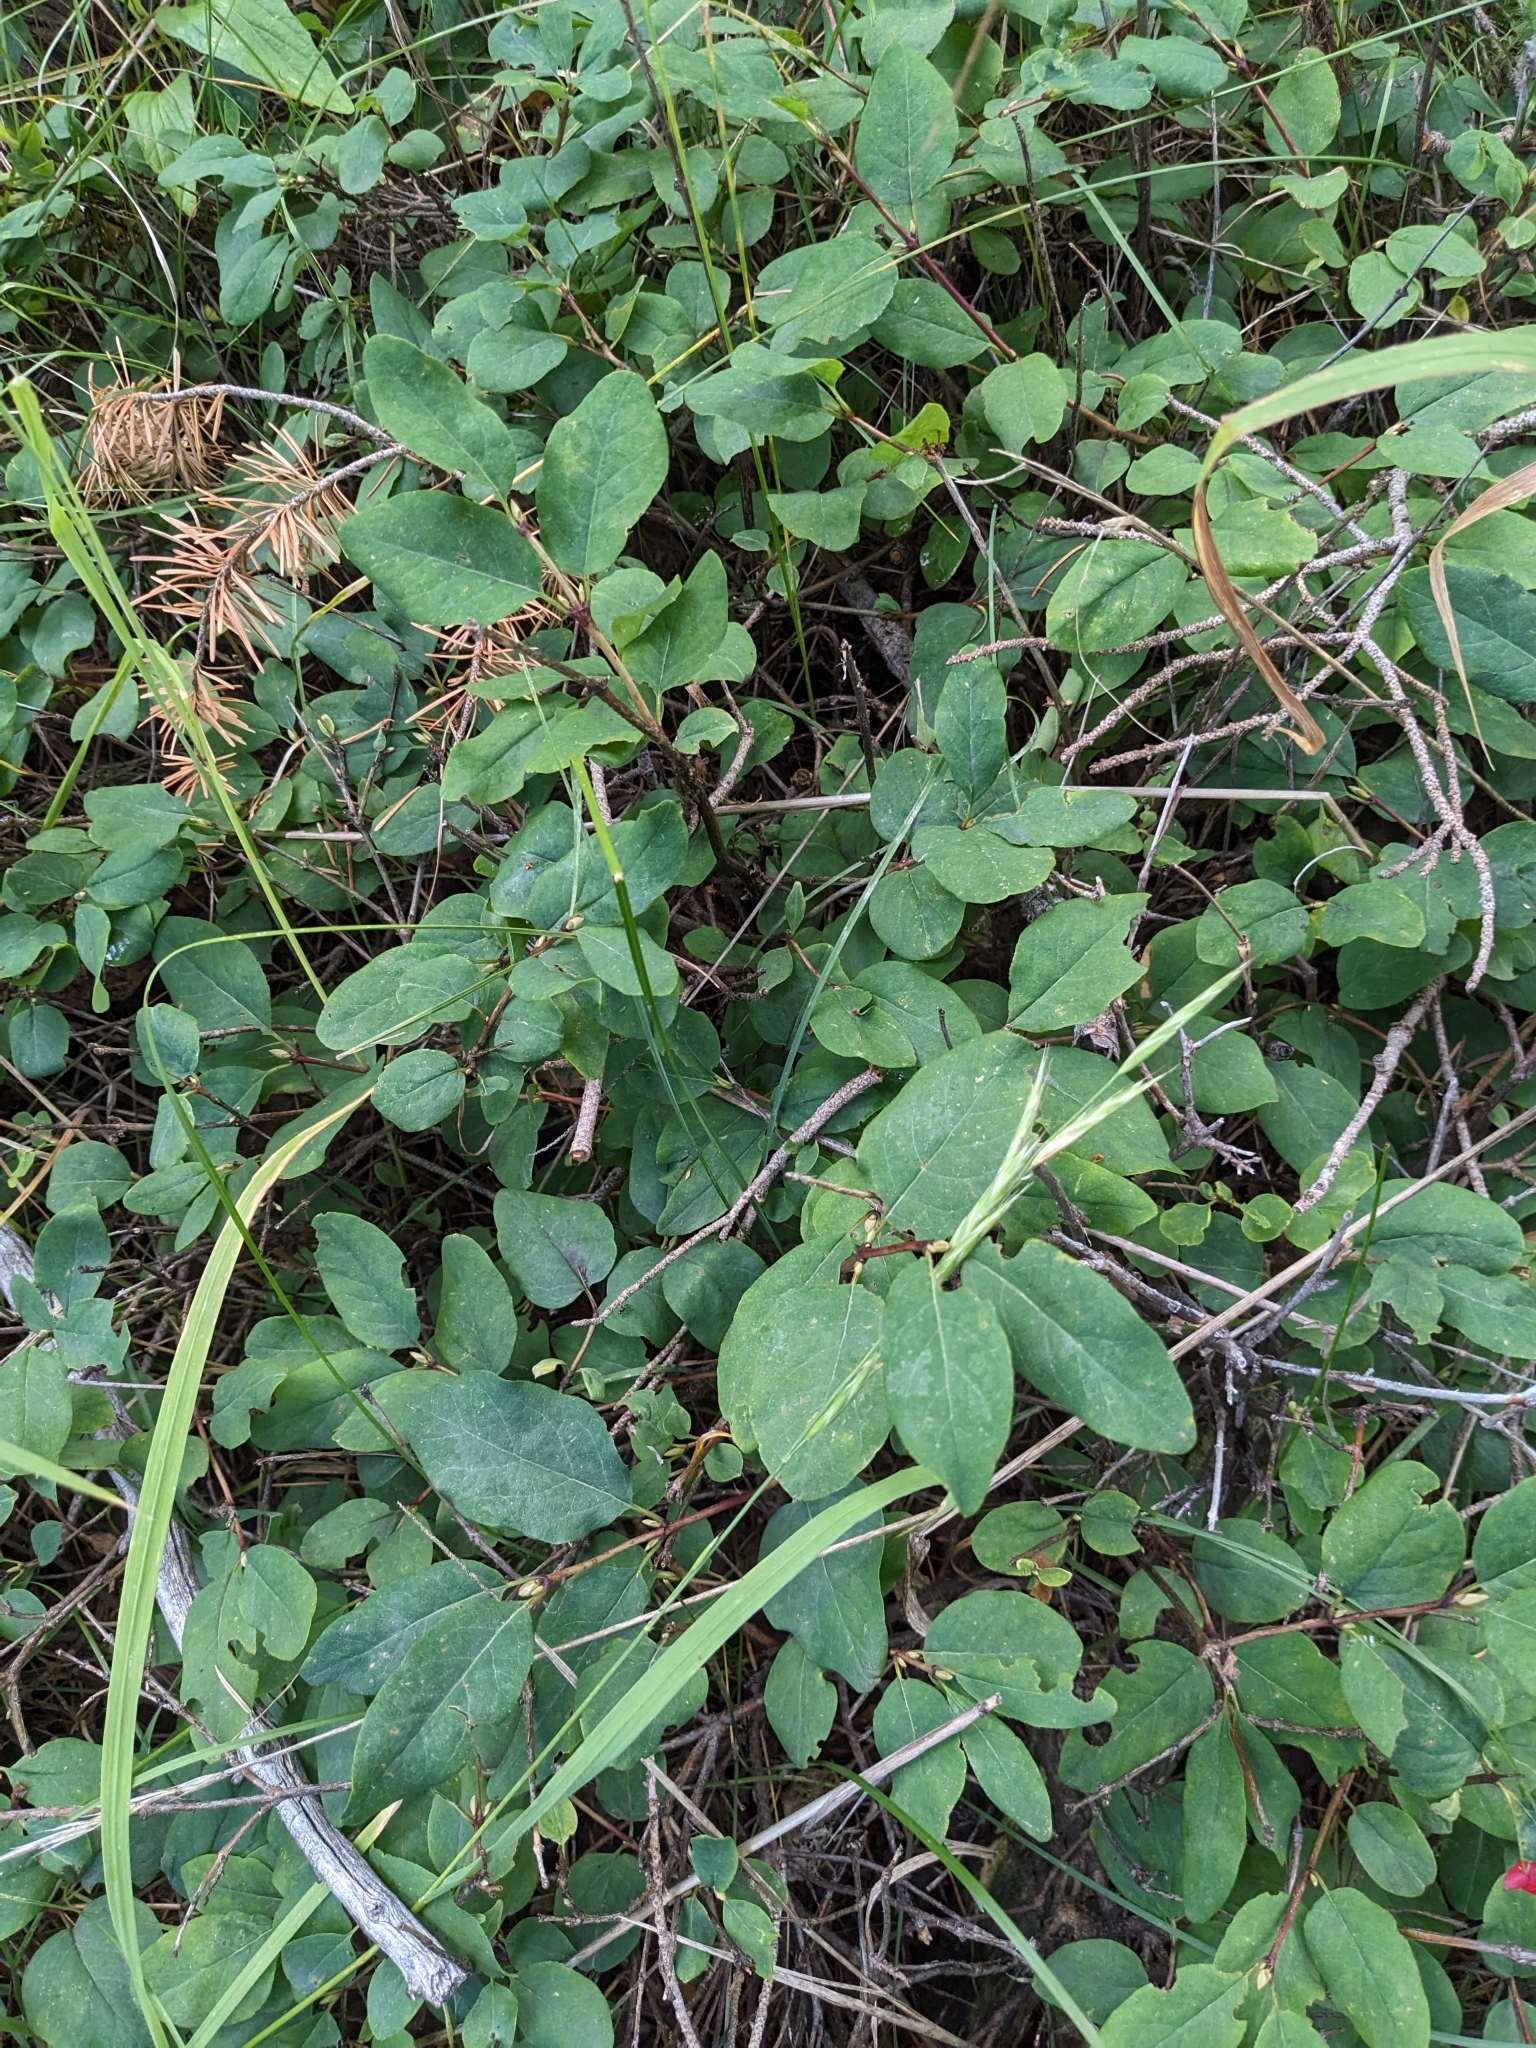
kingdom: Plantae
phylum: Tracheophyta
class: Magnoliopsida
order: Dipsacales
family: Caprifoliaceae
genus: Lonicera
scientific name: Lonicera utahensis
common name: Utah honeysuckle
